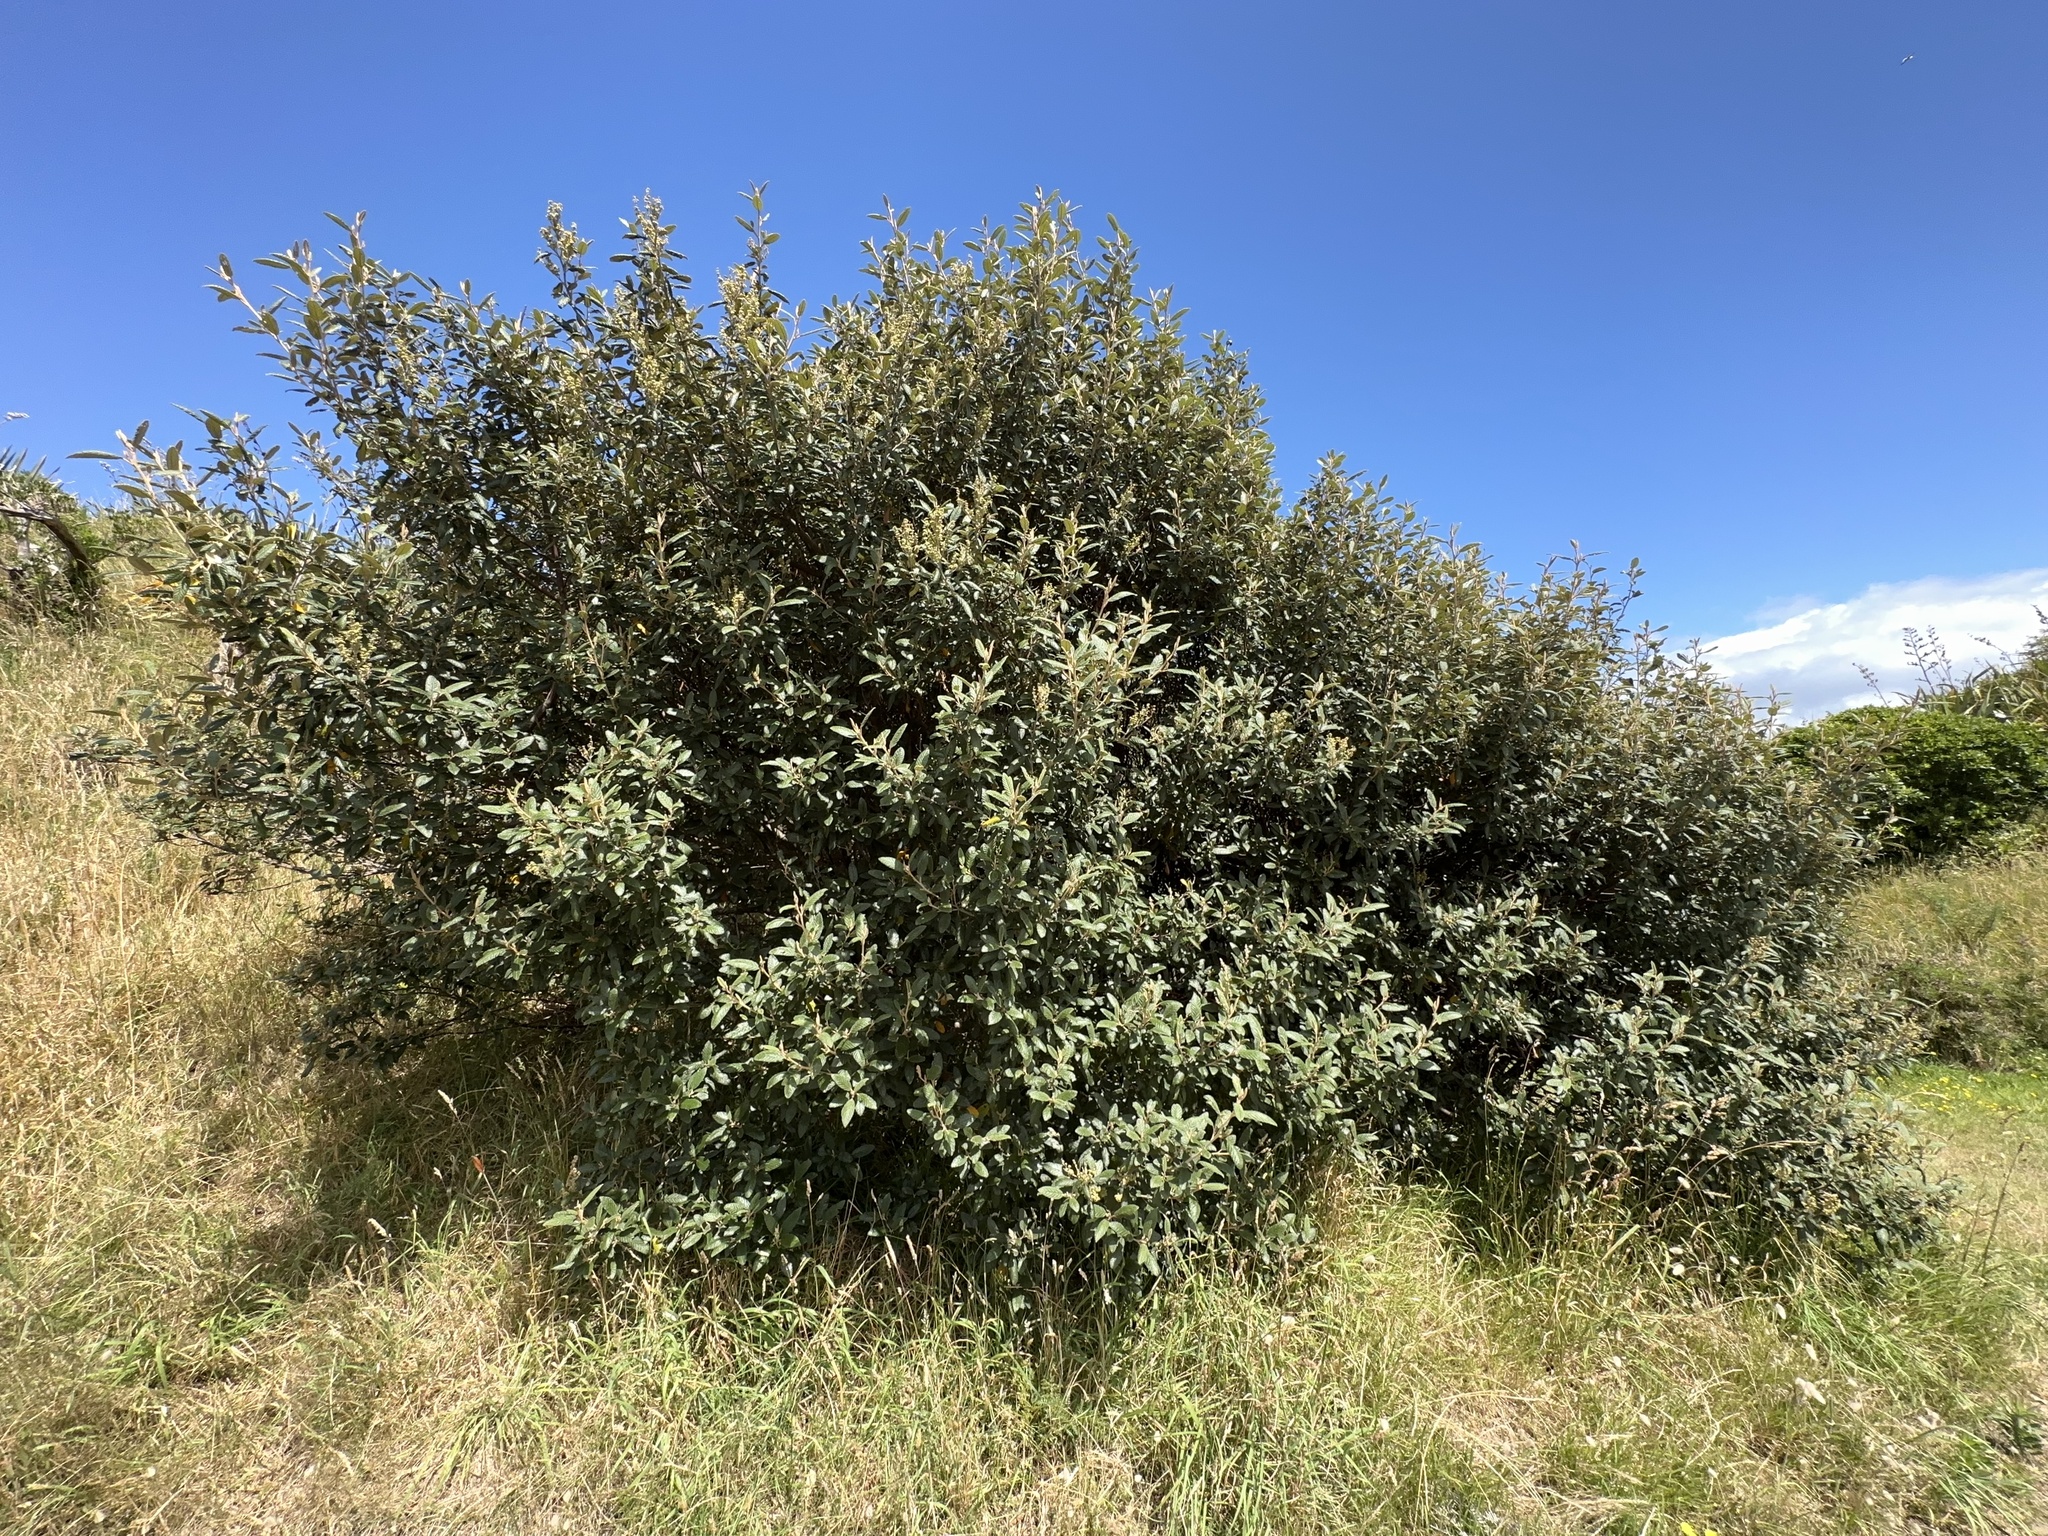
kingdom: Plantae
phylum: Tracheophyta
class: Magnoliopsida
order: Rosales
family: Rhamnaceae
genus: Pomaderris
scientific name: Pomaderris apetala
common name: Hazel pomaderris
